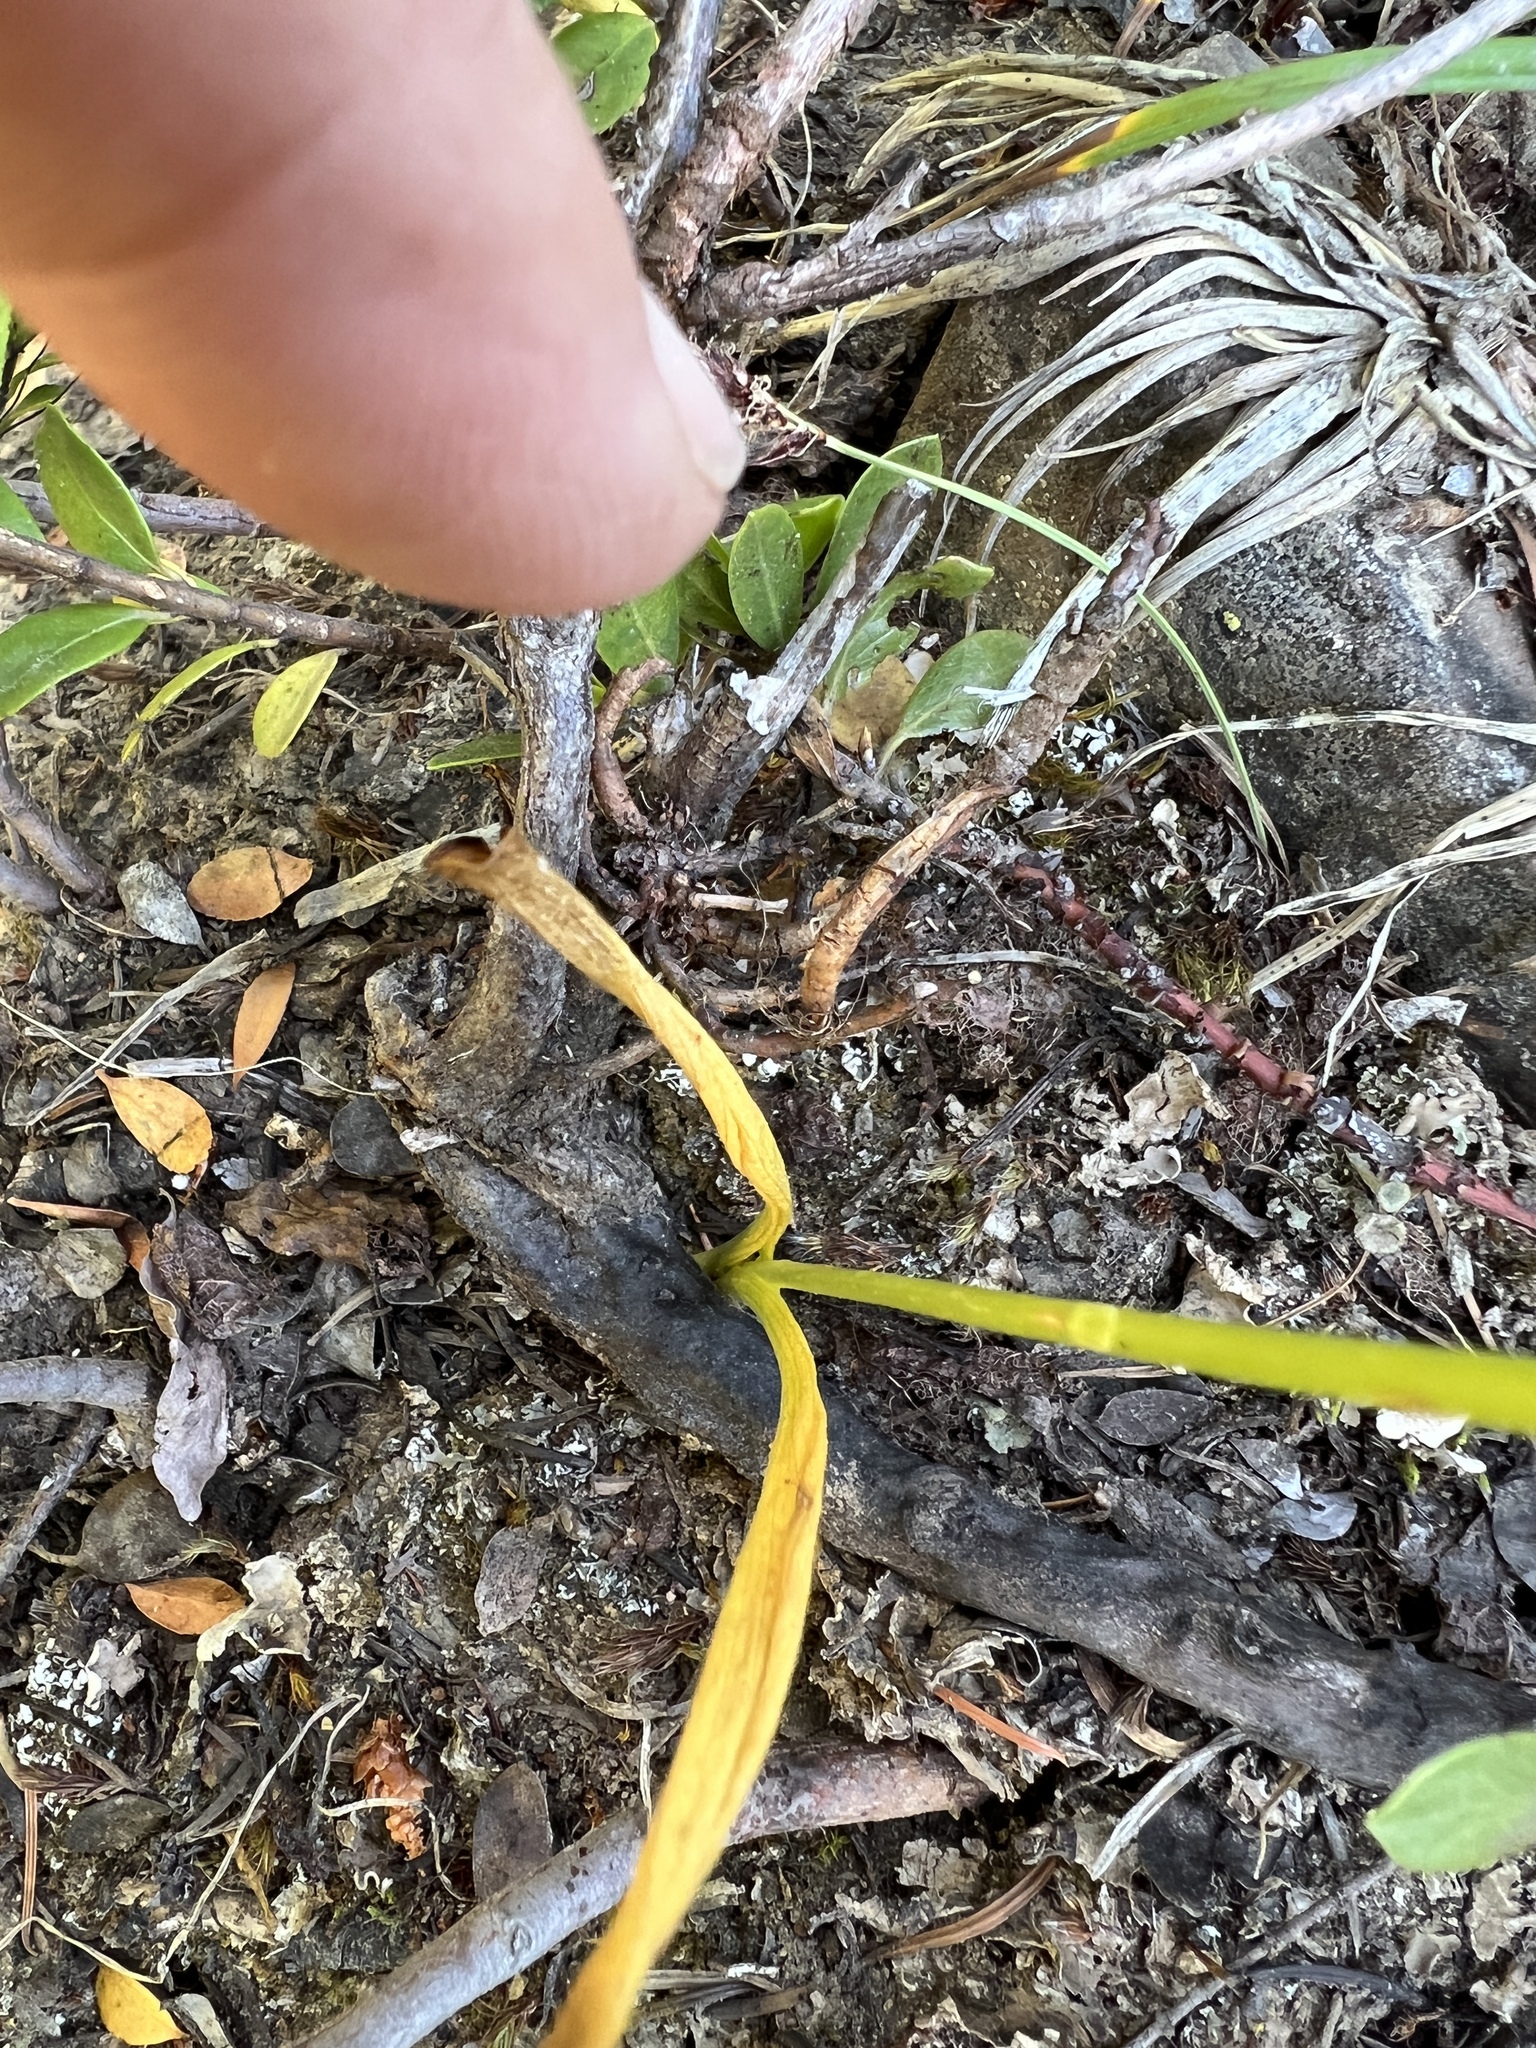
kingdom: Plantae
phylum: Tracheophyta
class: Liliopsida
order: Asparagales
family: Orchidaceae
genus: Platanthera
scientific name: Platanthera unalascensis
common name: Alaska bog orchid
